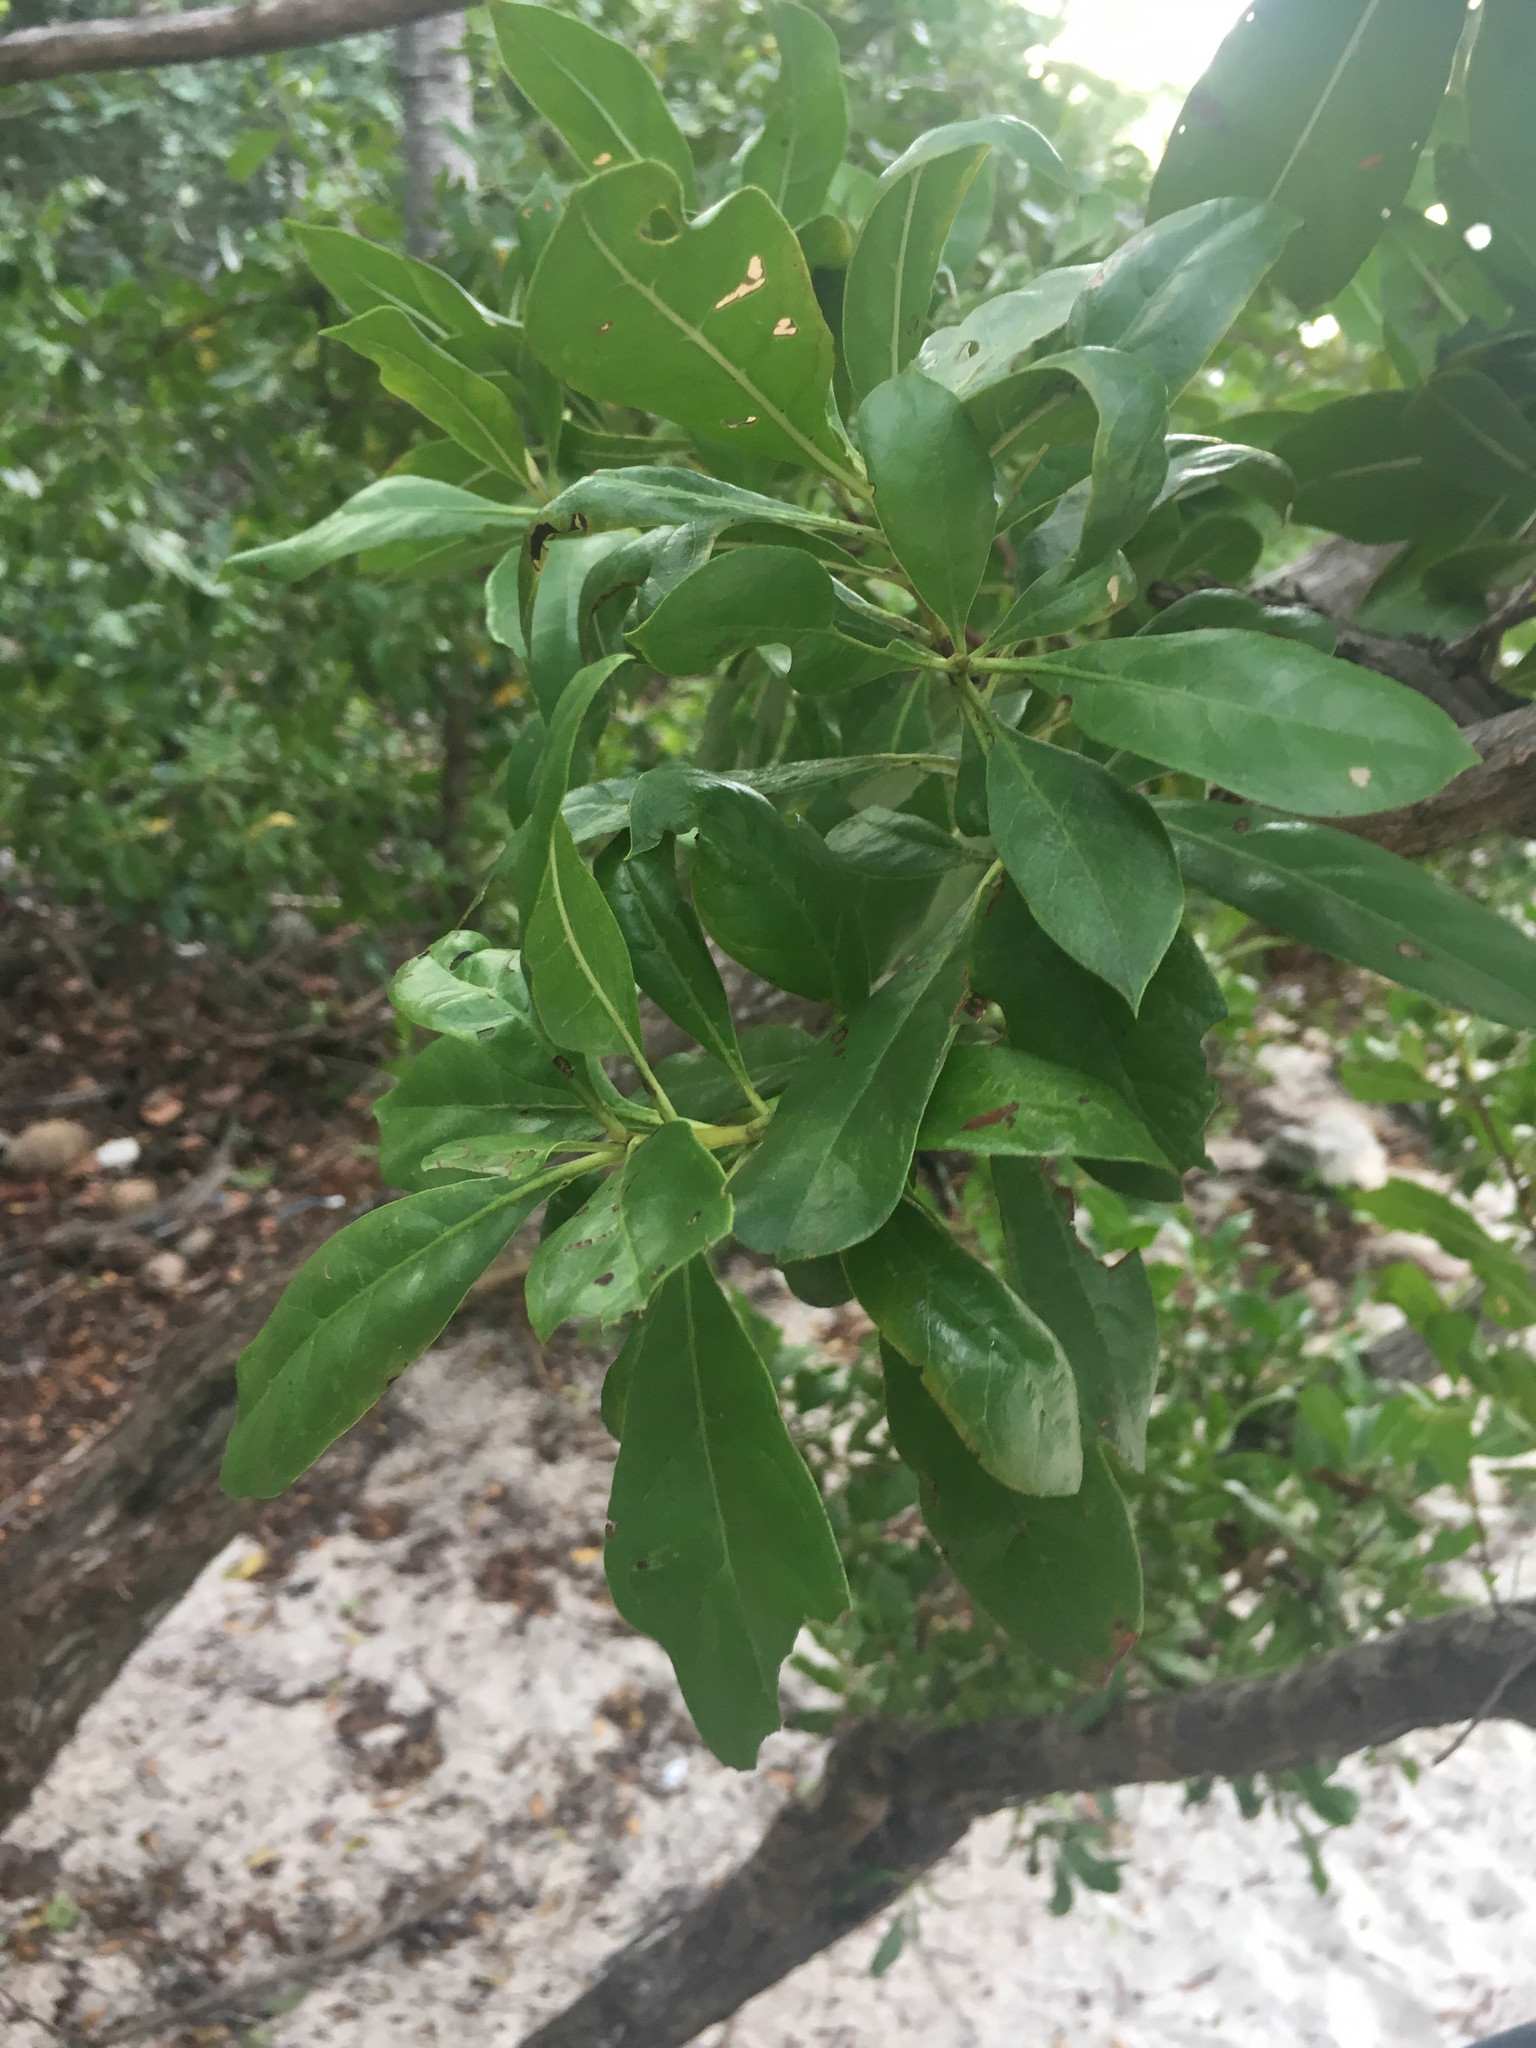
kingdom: Plantae
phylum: Tracheophyta
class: Magnoliopsida
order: Myrtales
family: Combretaceae
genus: Conocarpus
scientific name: Conocarpus erectus
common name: Button mangrove
